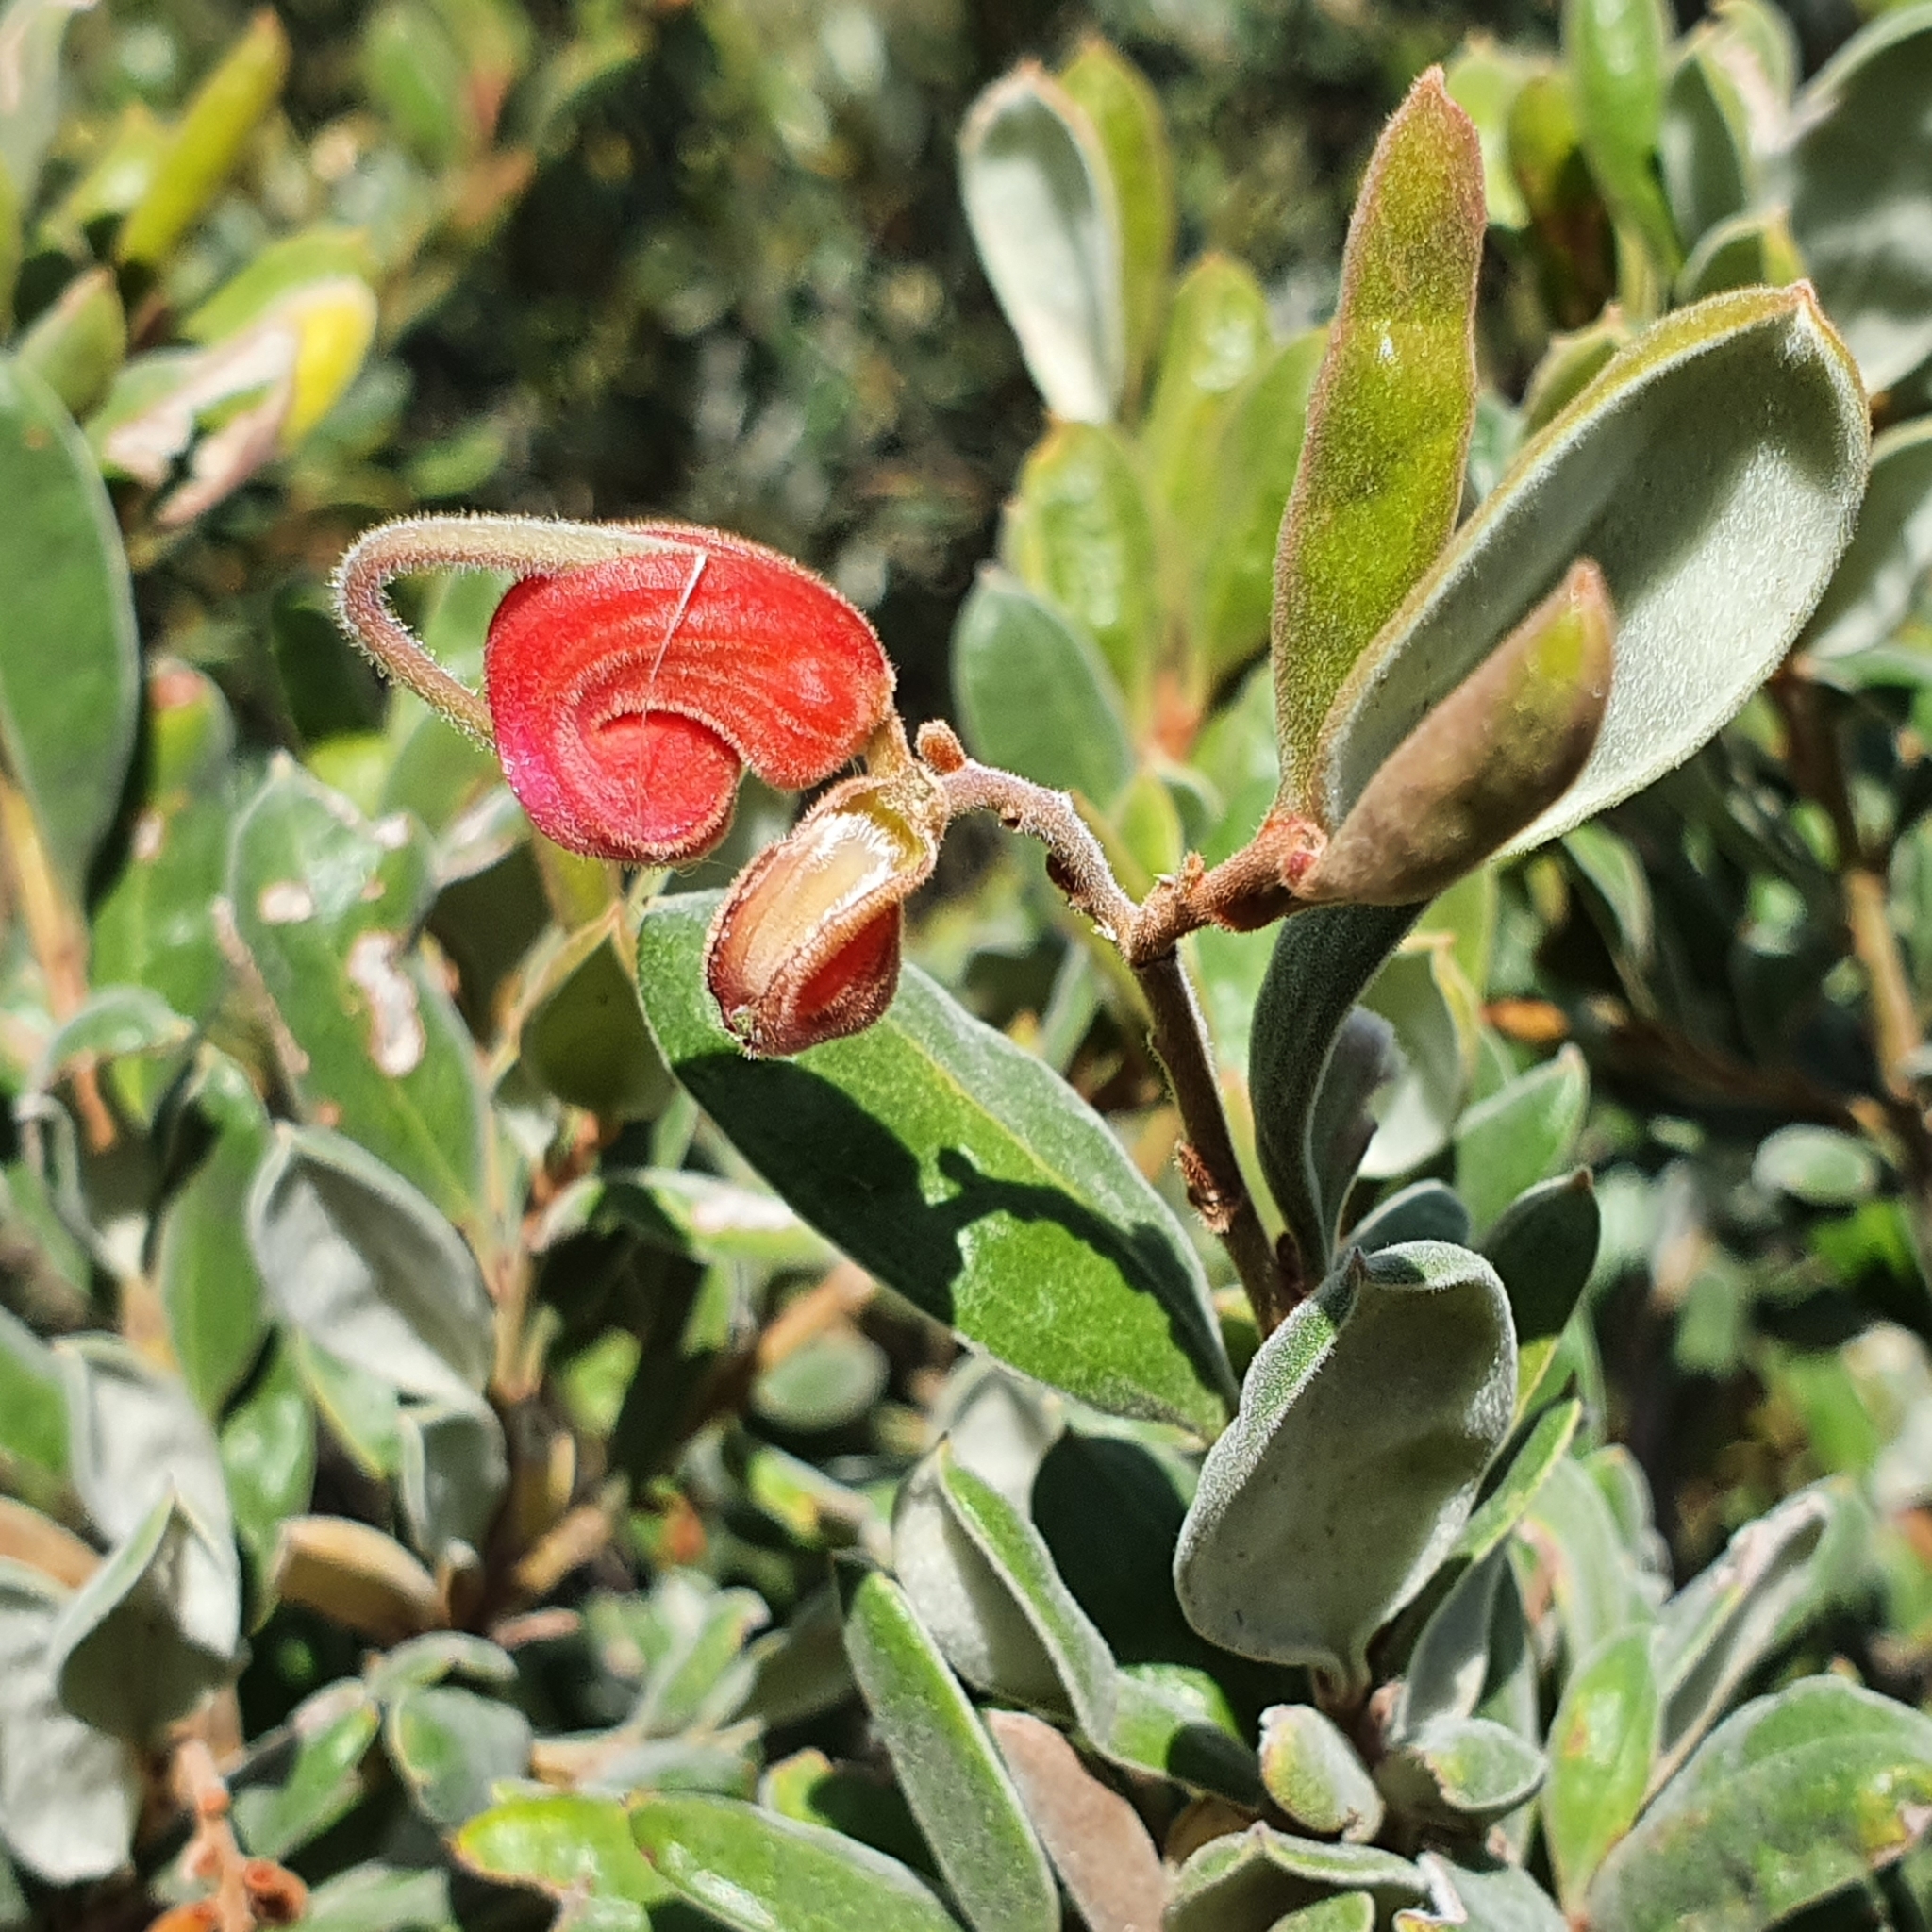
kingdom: Plantae
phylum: Tracheophyta
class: Magnoliopsida
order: Proteales
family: Proteaceae
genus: Grevillea
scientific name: Grevillea arenaria
